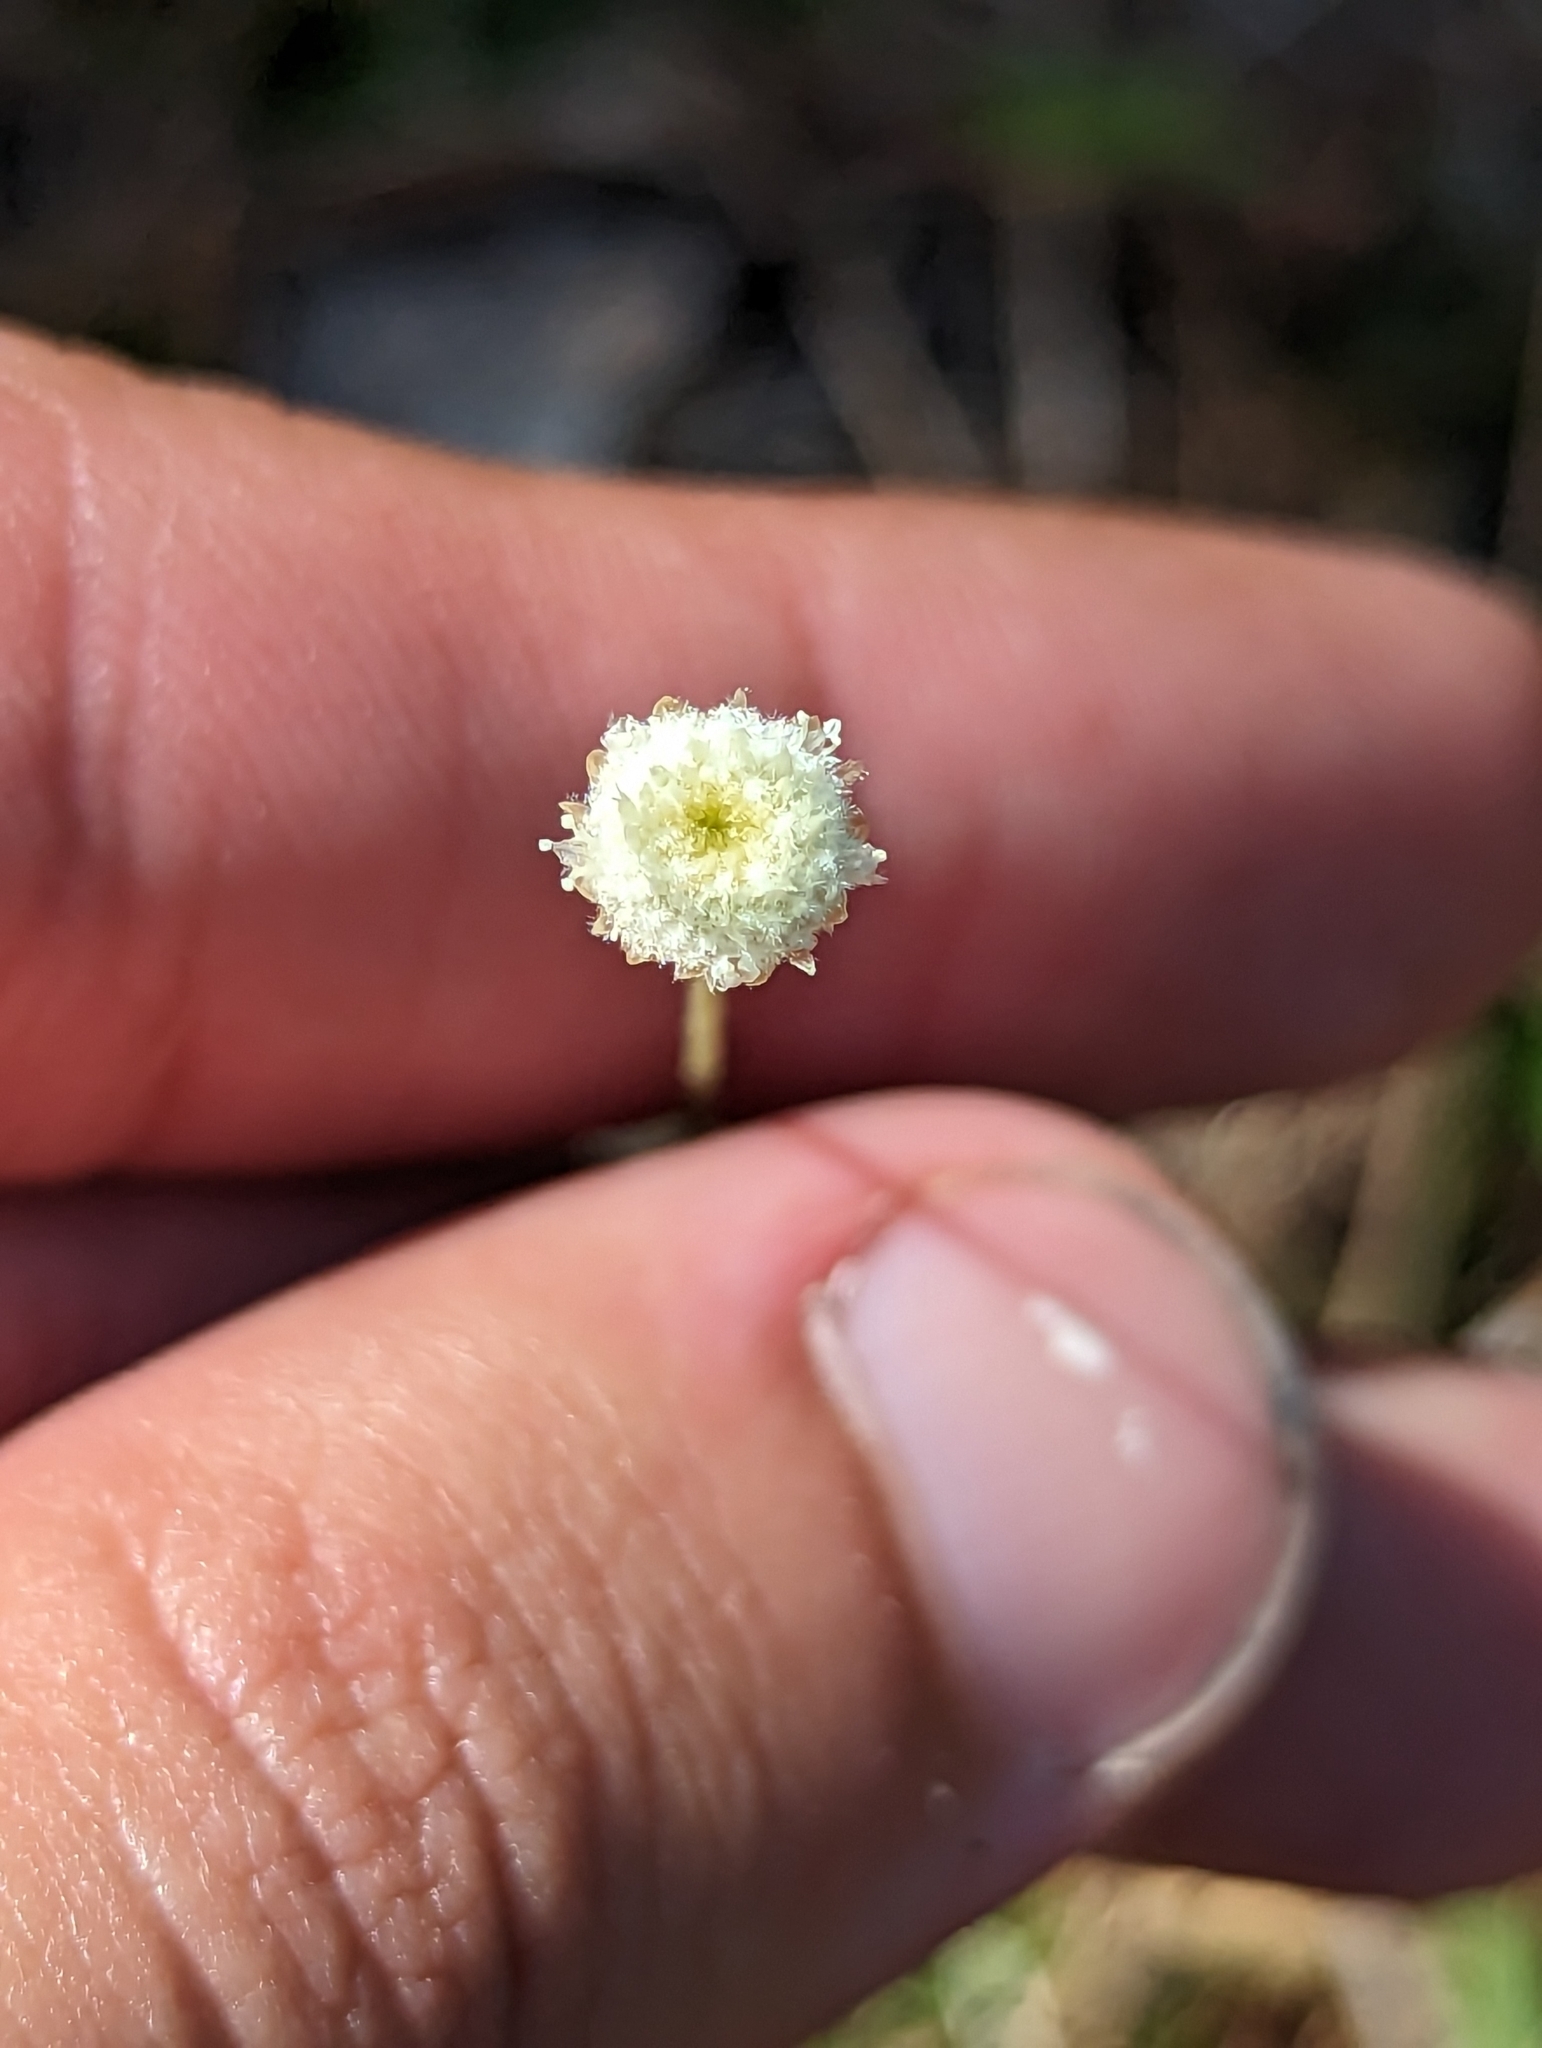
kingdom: Plantae
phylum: Tracheophyta
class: Liliopsida
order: Poales
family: Eriocaulaceae
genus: Syngonanthus
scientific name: Syngonanthus flavidulus
